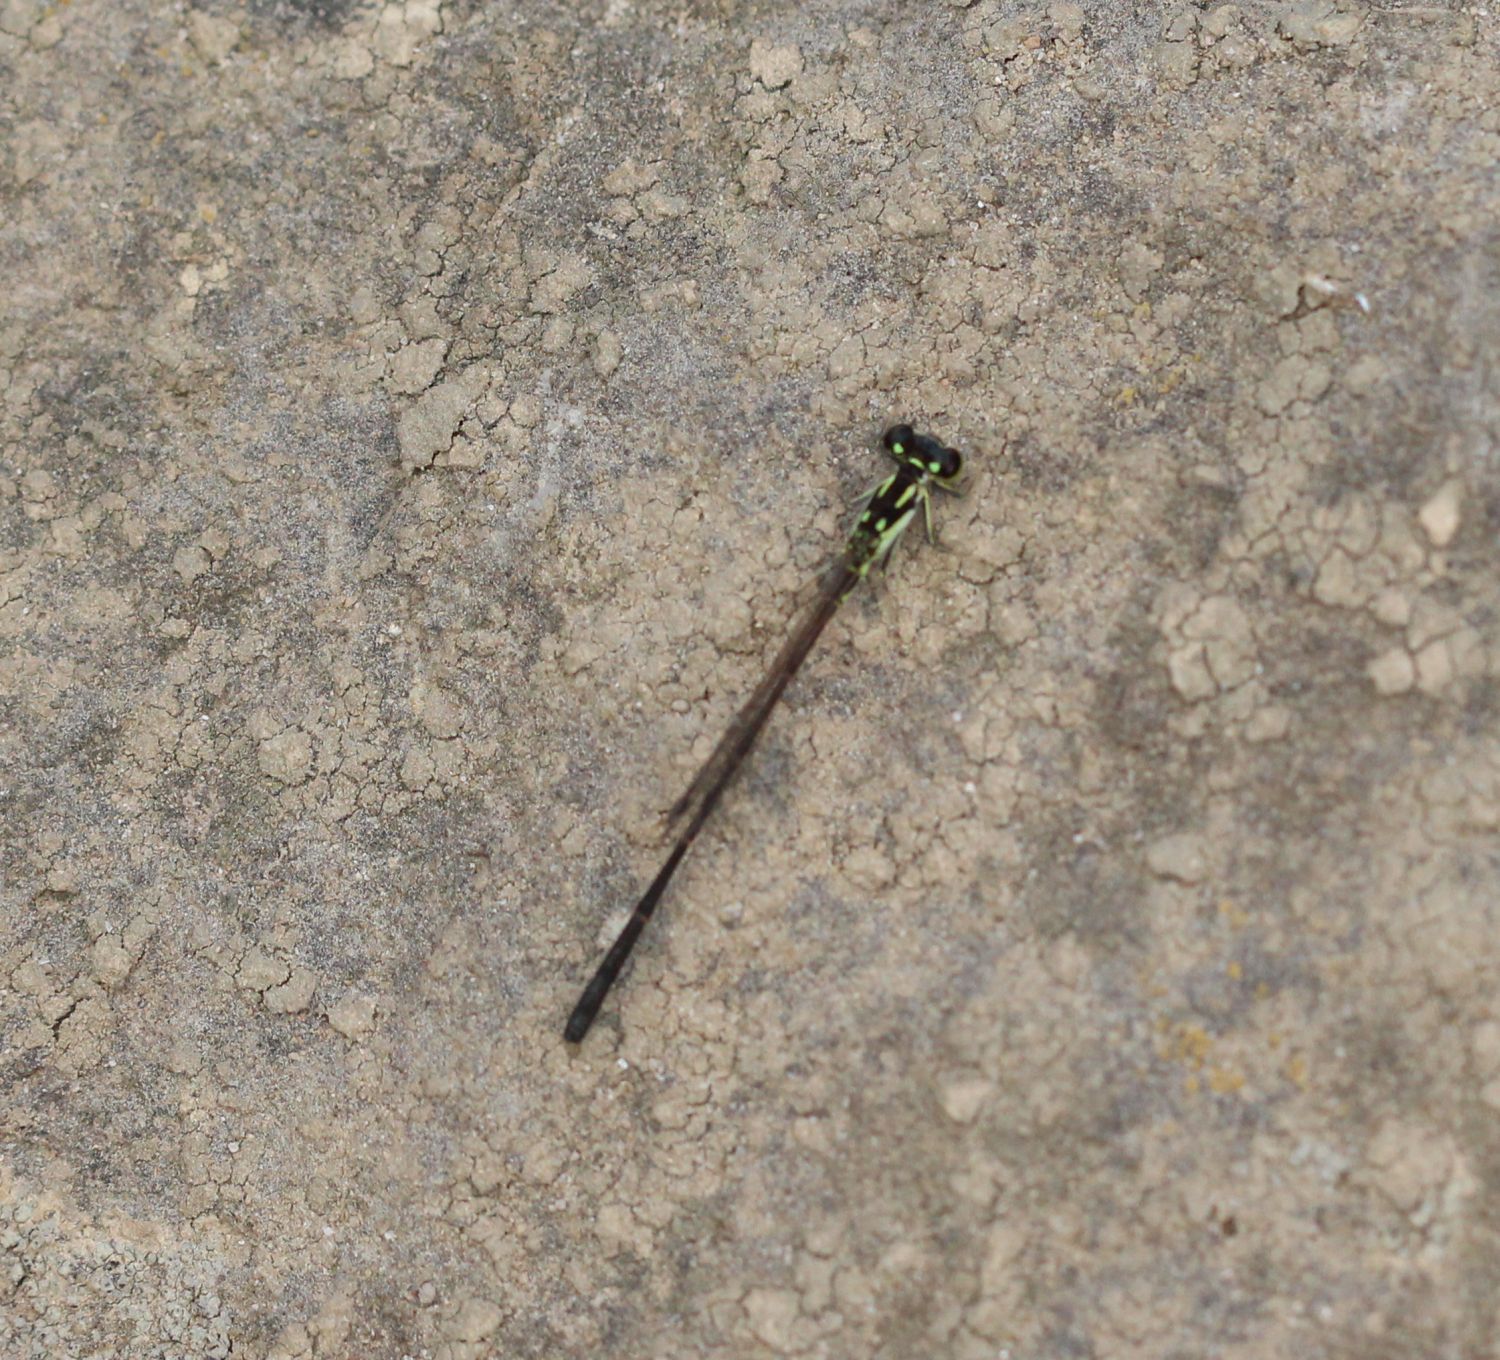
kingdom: Animalia
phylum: Arthropoda
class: Insecta
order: Odonata
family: Coenagrionidae
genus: Ischnura
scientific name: Ischnura posita
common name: Fragile forktail
